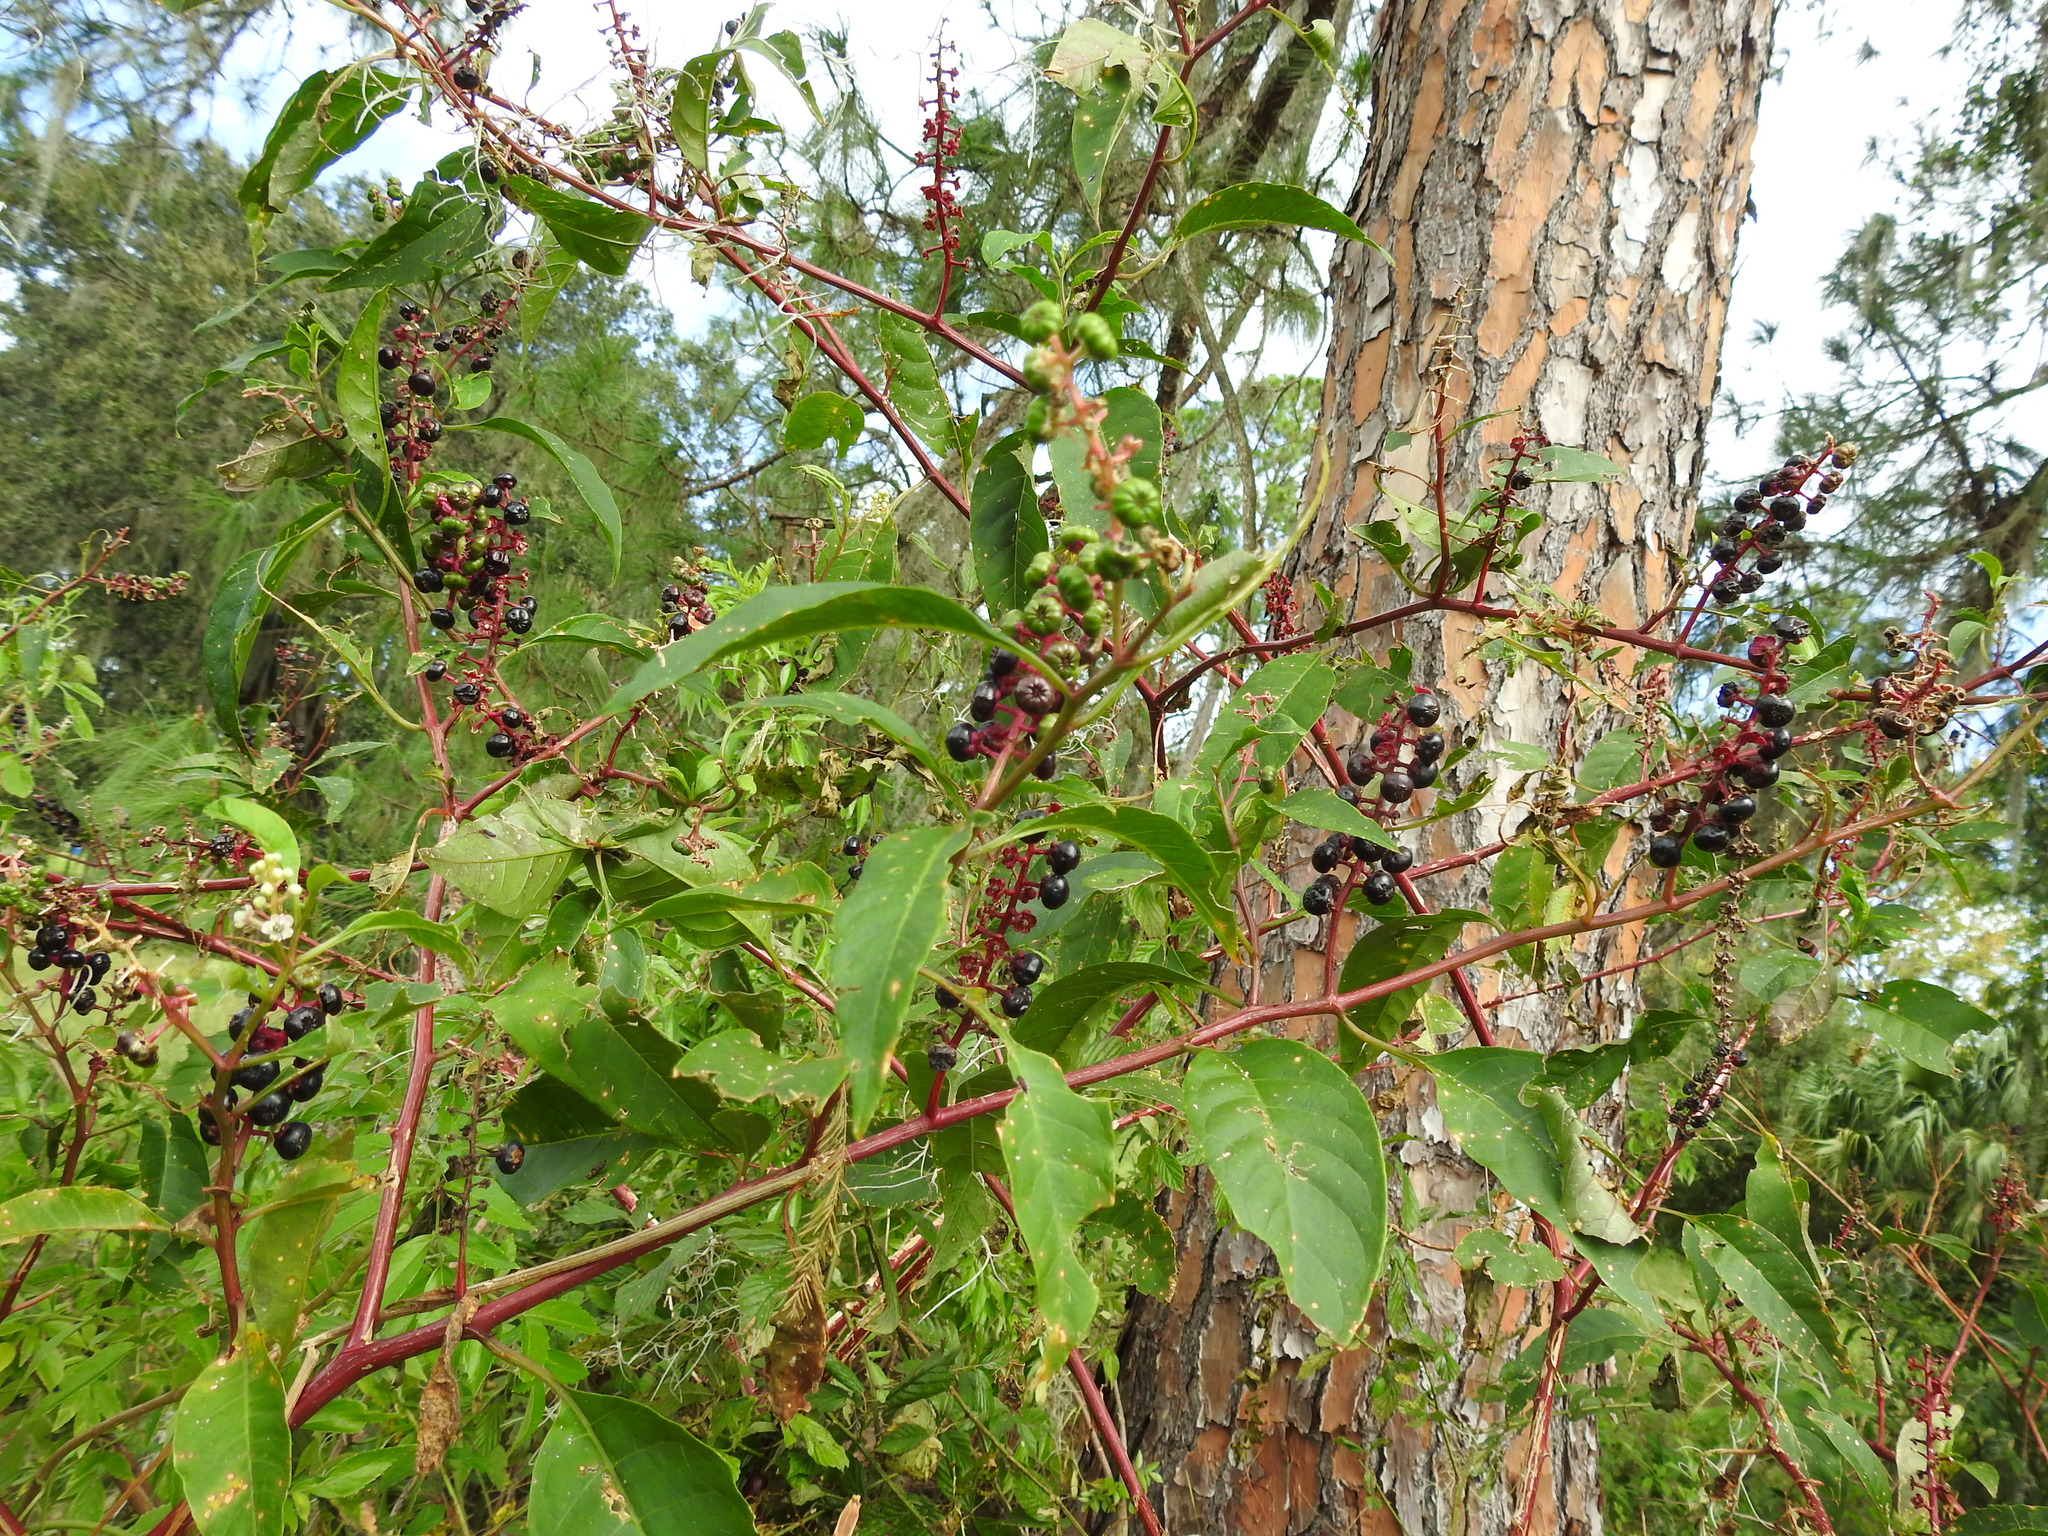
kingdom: Plantae
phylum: Tracheophyta
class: Magnoliopsida
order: Caryophyllales
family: Phytolaccaceae
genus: Phytolacca
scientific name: Phytolacca americana
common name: American pokeweed
